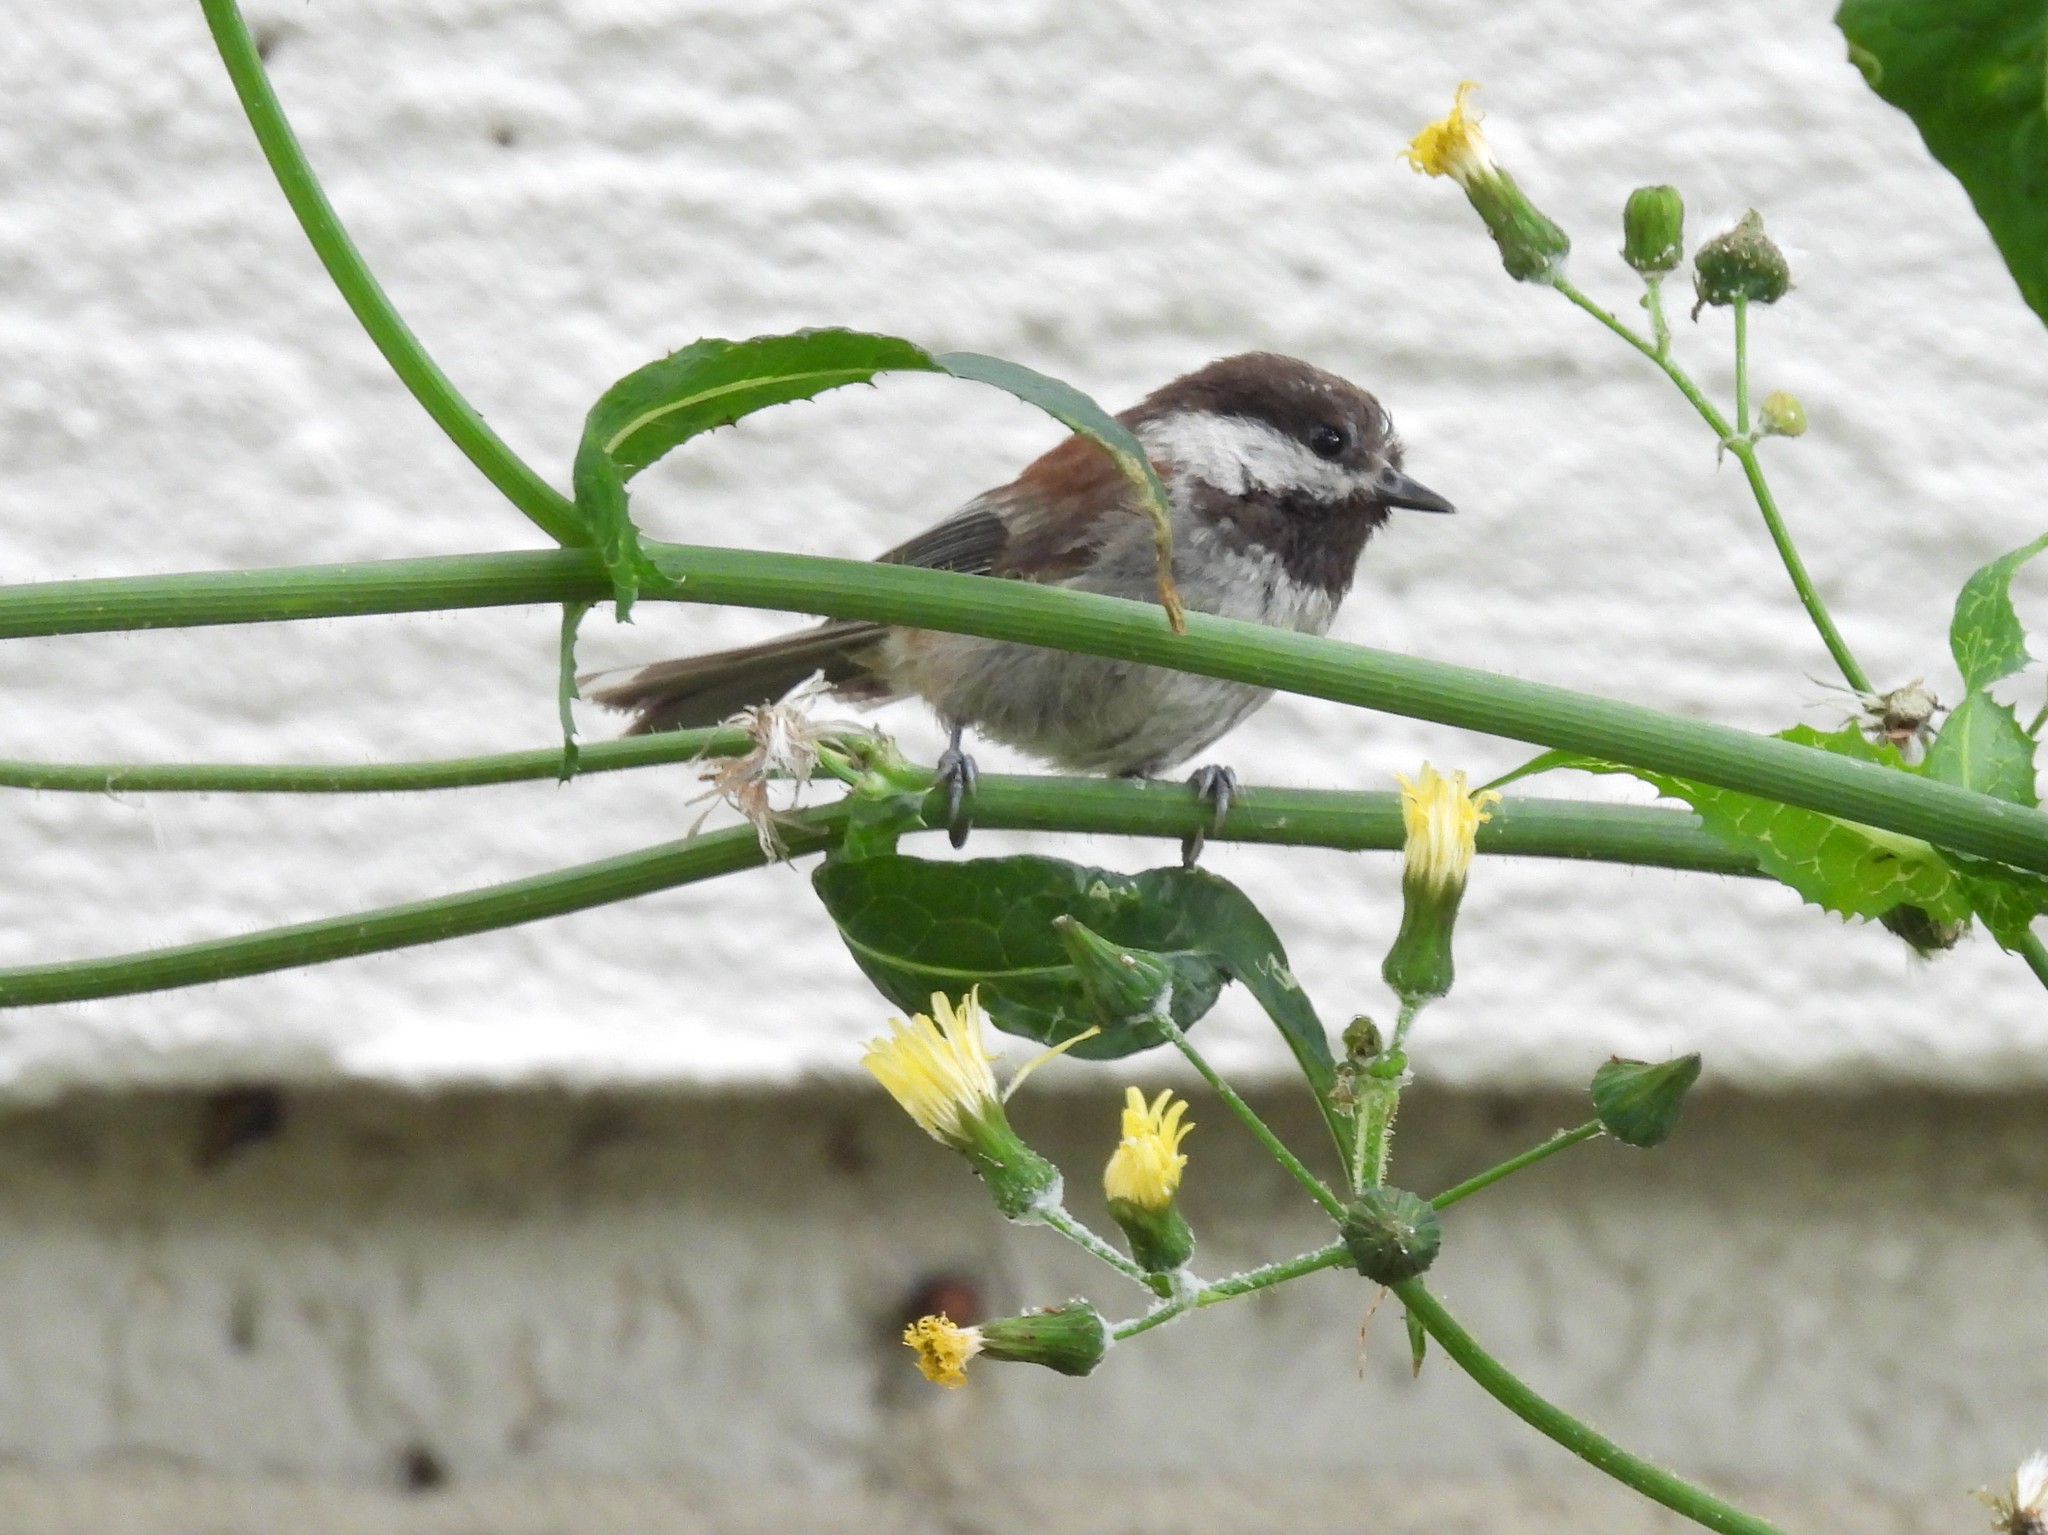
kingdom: Animalia
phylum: Chordata
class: Aves
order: Passeriformes
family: Paridae
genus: Poecile
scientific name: Poecile rufescens
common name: Chestnut-backed chickadee
